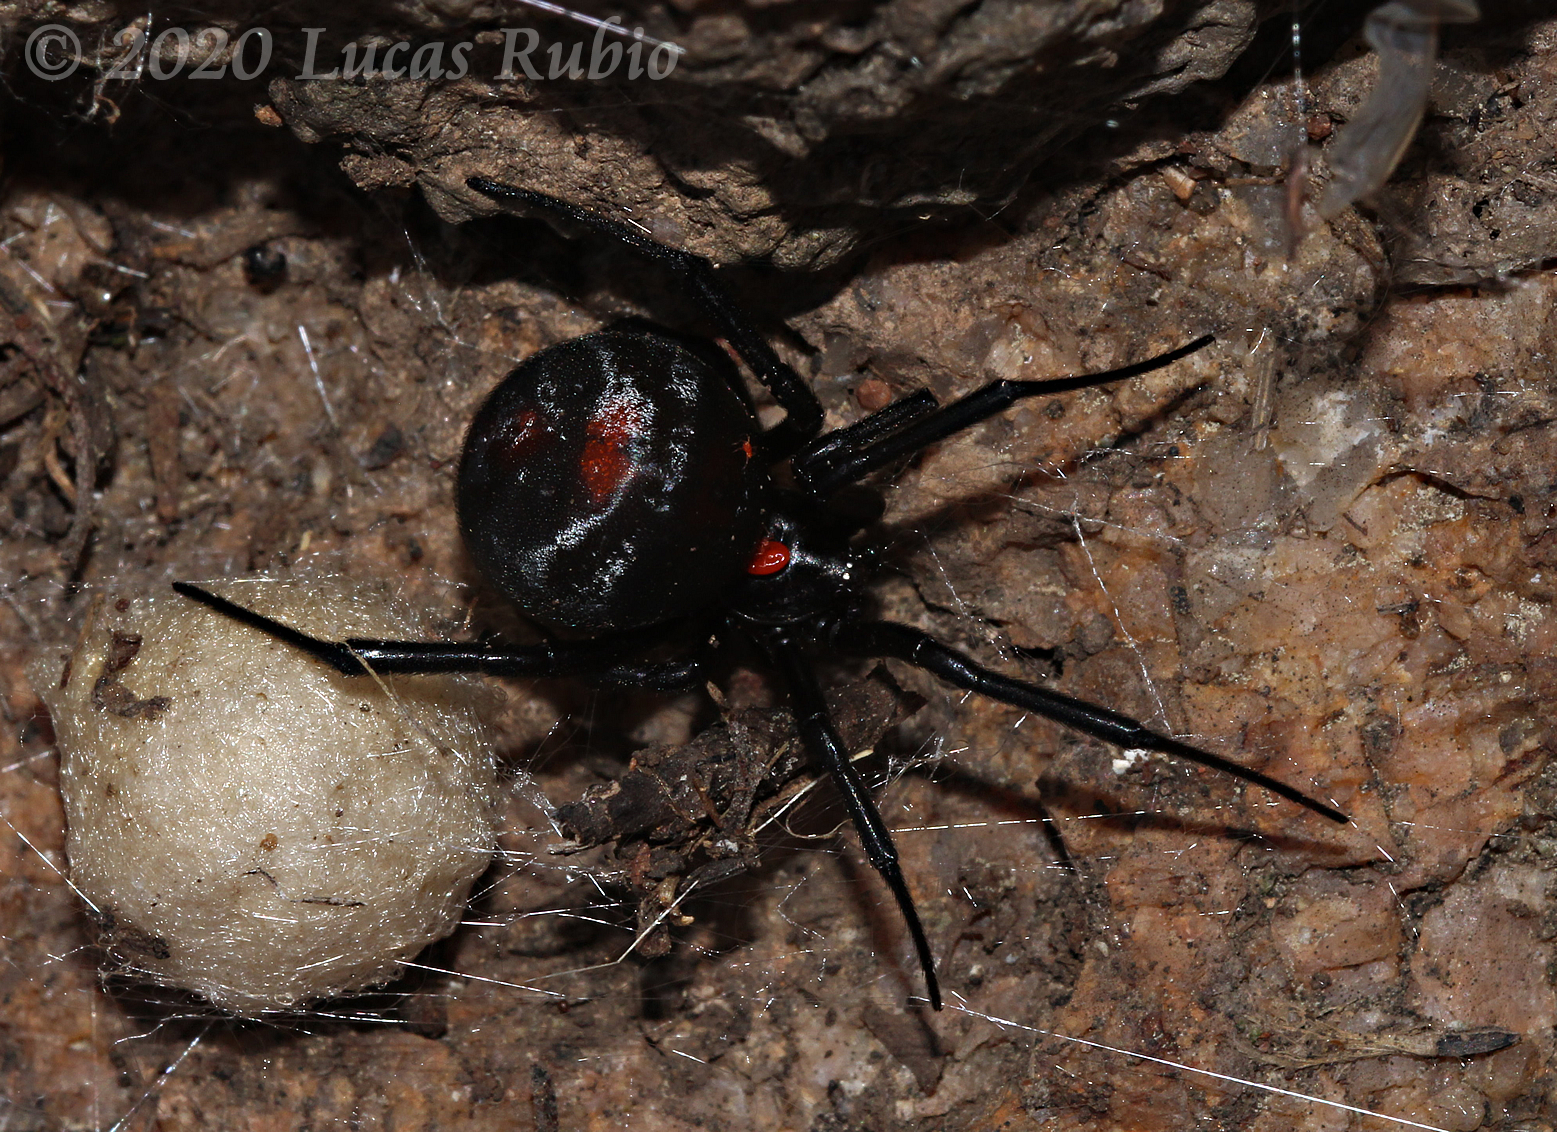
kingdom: Animalia
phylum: Arthropoda
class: Arachnida
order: Araneae
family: Theridiidae
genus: Latrodectus
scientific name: Latrodectus mirabilis
